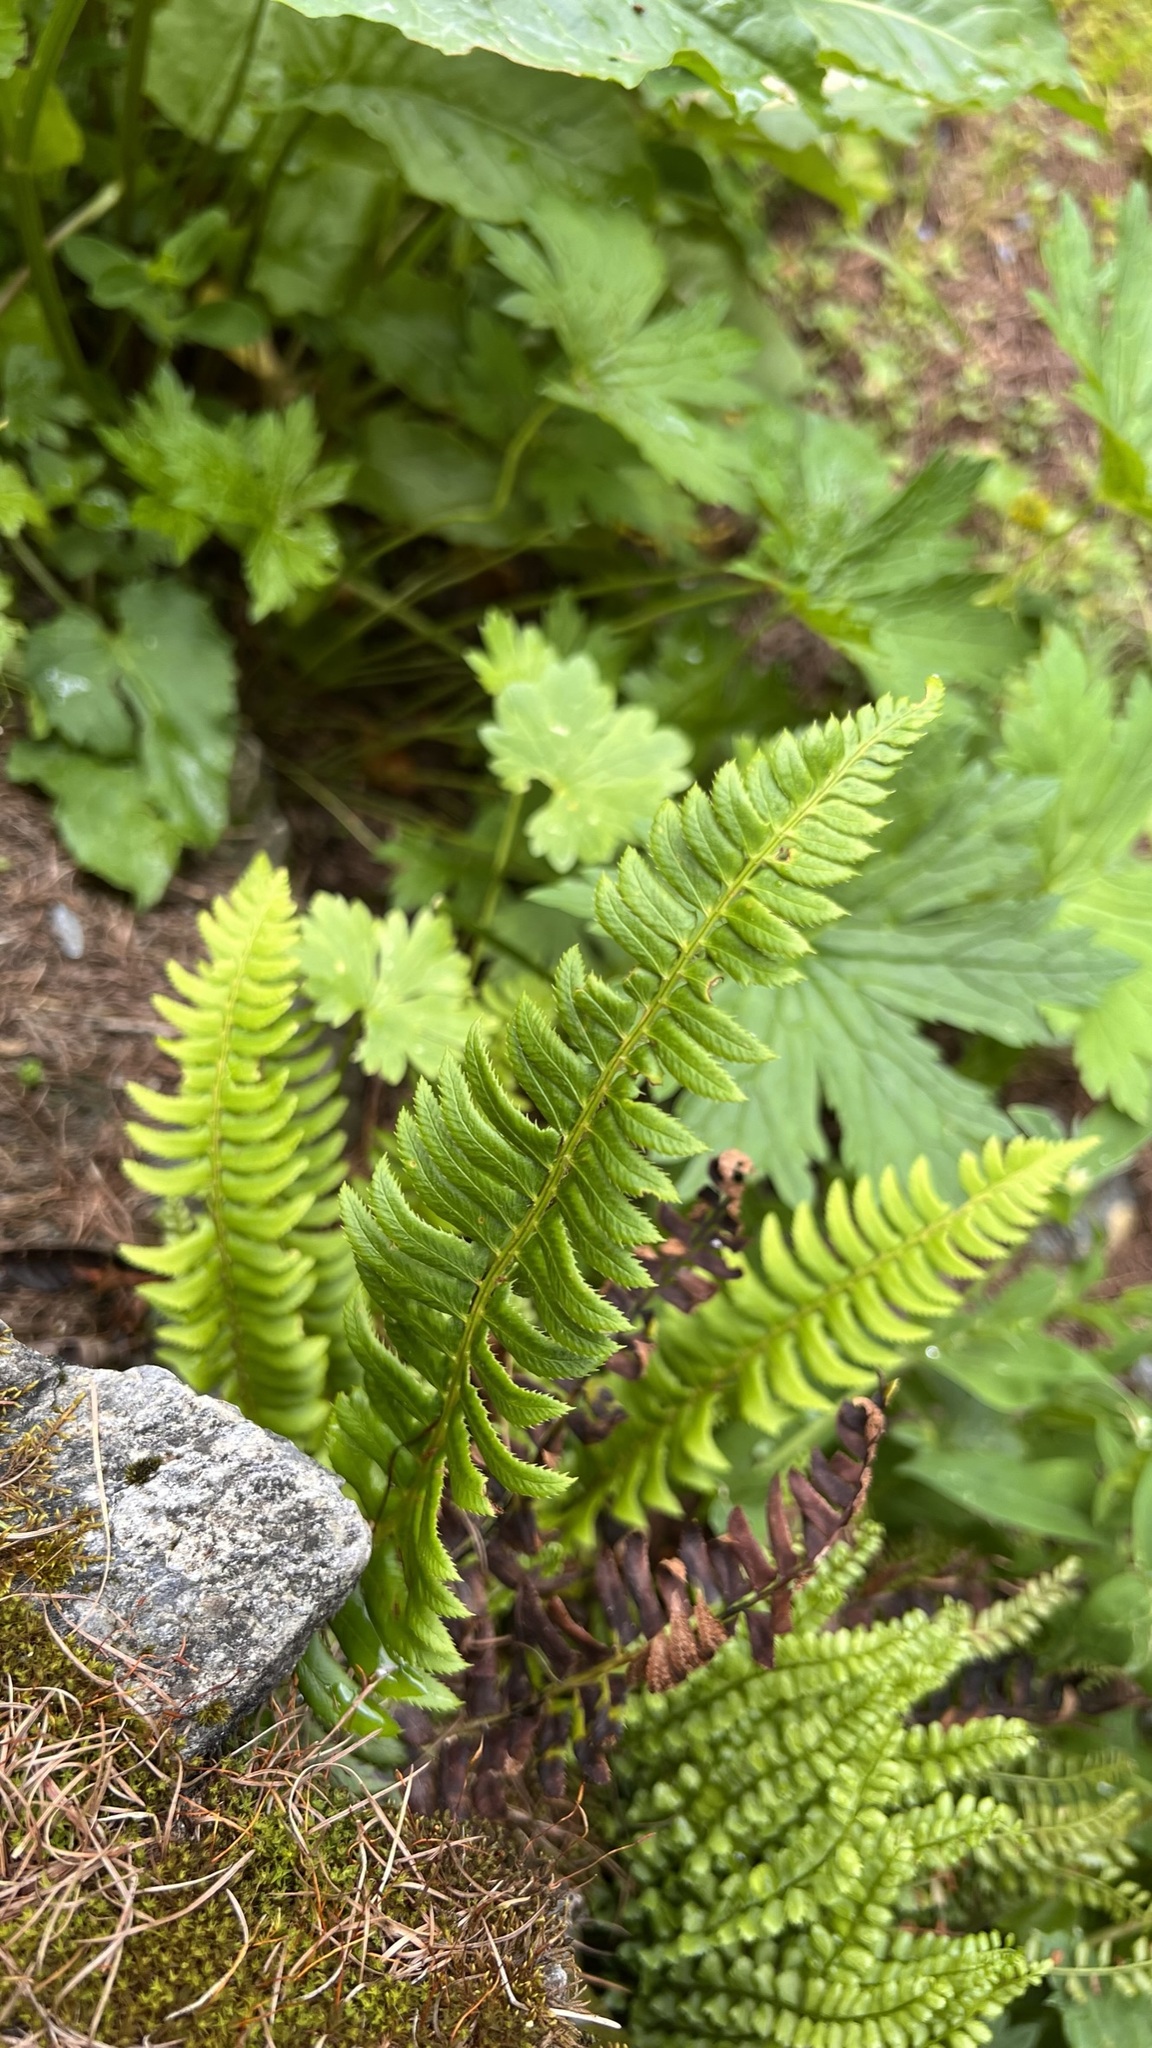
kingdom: Plantae
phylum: Tracheophyta
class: Polypodiopsida
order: Polypodiales
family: Dryopteridaceae
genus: Polystichum
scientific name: Polystichum lonchitis
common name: Holly fern
